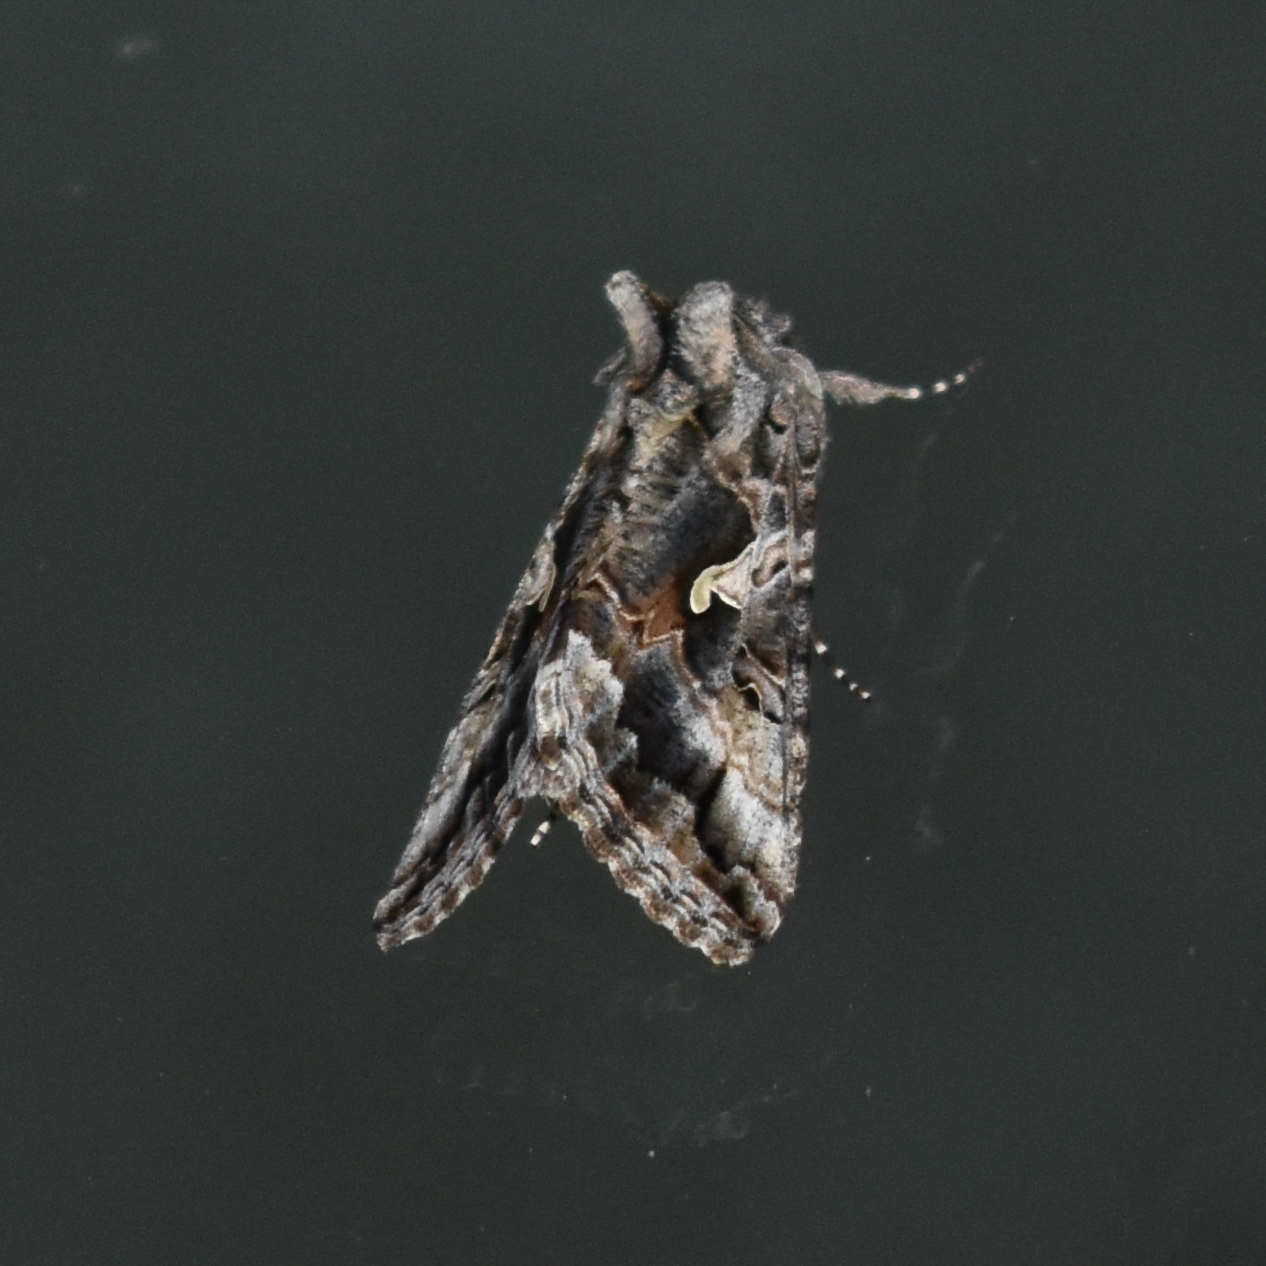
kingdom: Animalia
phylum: Arthropoda
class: Insecta
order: Lepidoptera
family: Noctuidae
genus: Autographa
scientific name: Autographa californica
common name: Alfalfa looper
